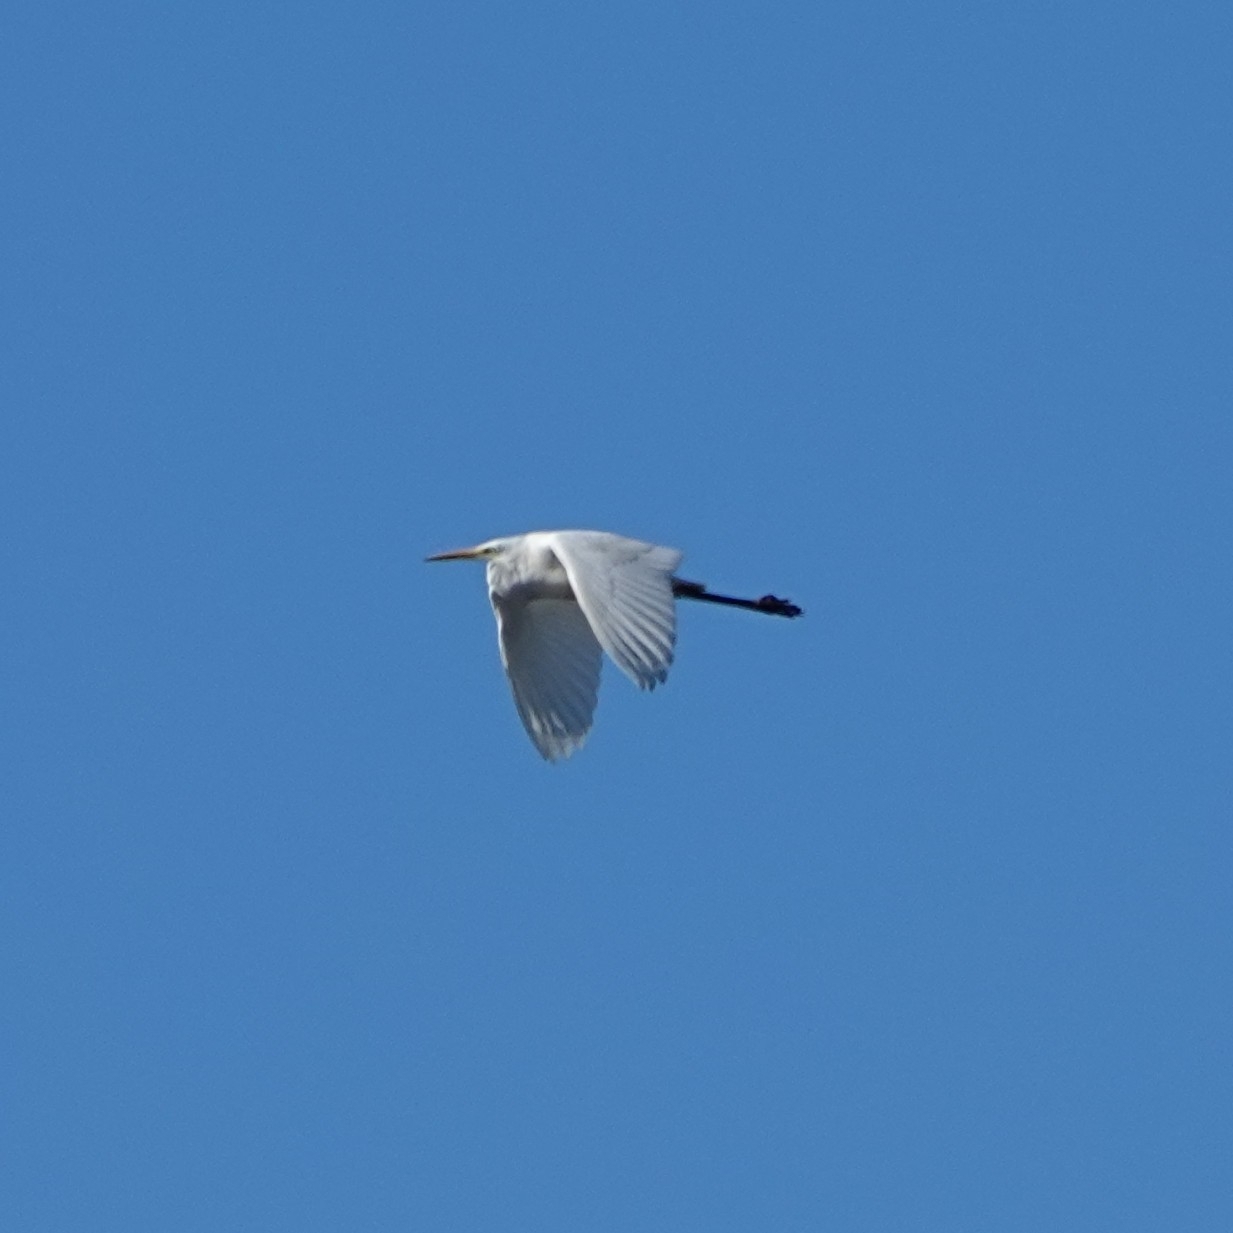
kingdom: Animalia
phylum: Chordata
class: Aves
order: Pelecaniformes
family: Ardeidae
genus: Ardea
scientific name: Ardea alba
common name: Great egret
